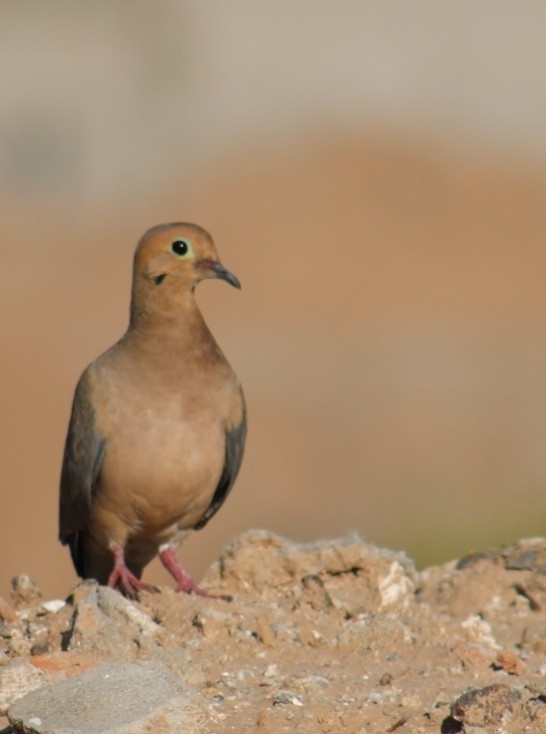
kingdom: Animalia
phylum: Chordata
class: Aves
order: Columbiformes
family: Columbidae
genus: Zenaida
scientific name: Zenaida macroura
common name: Mourning dove
